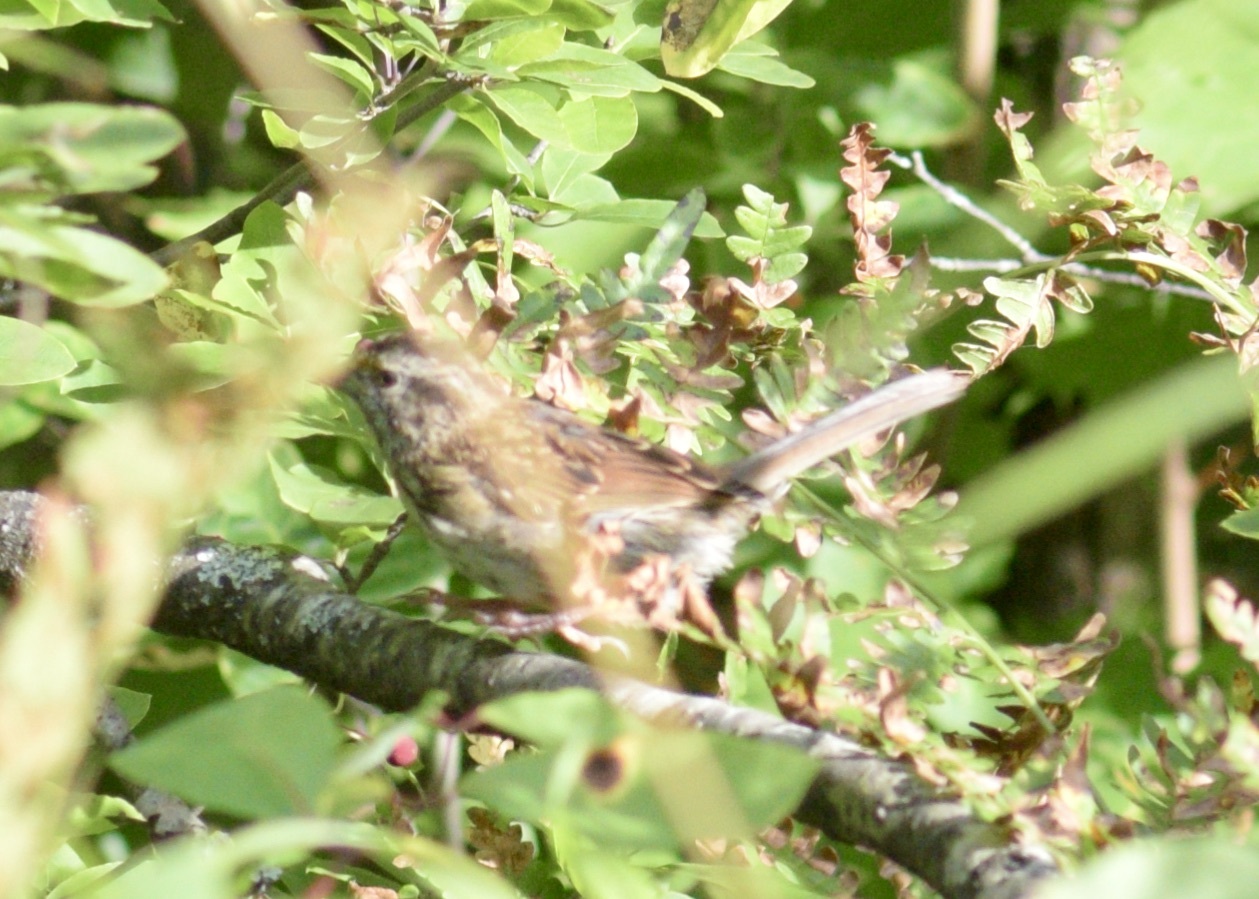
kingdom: Animalia
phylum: Chordata
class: Aves
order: Passeriformes
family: Passerellidae
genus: Melospiza
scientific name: Melospiza melodia
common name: Song sparrow
